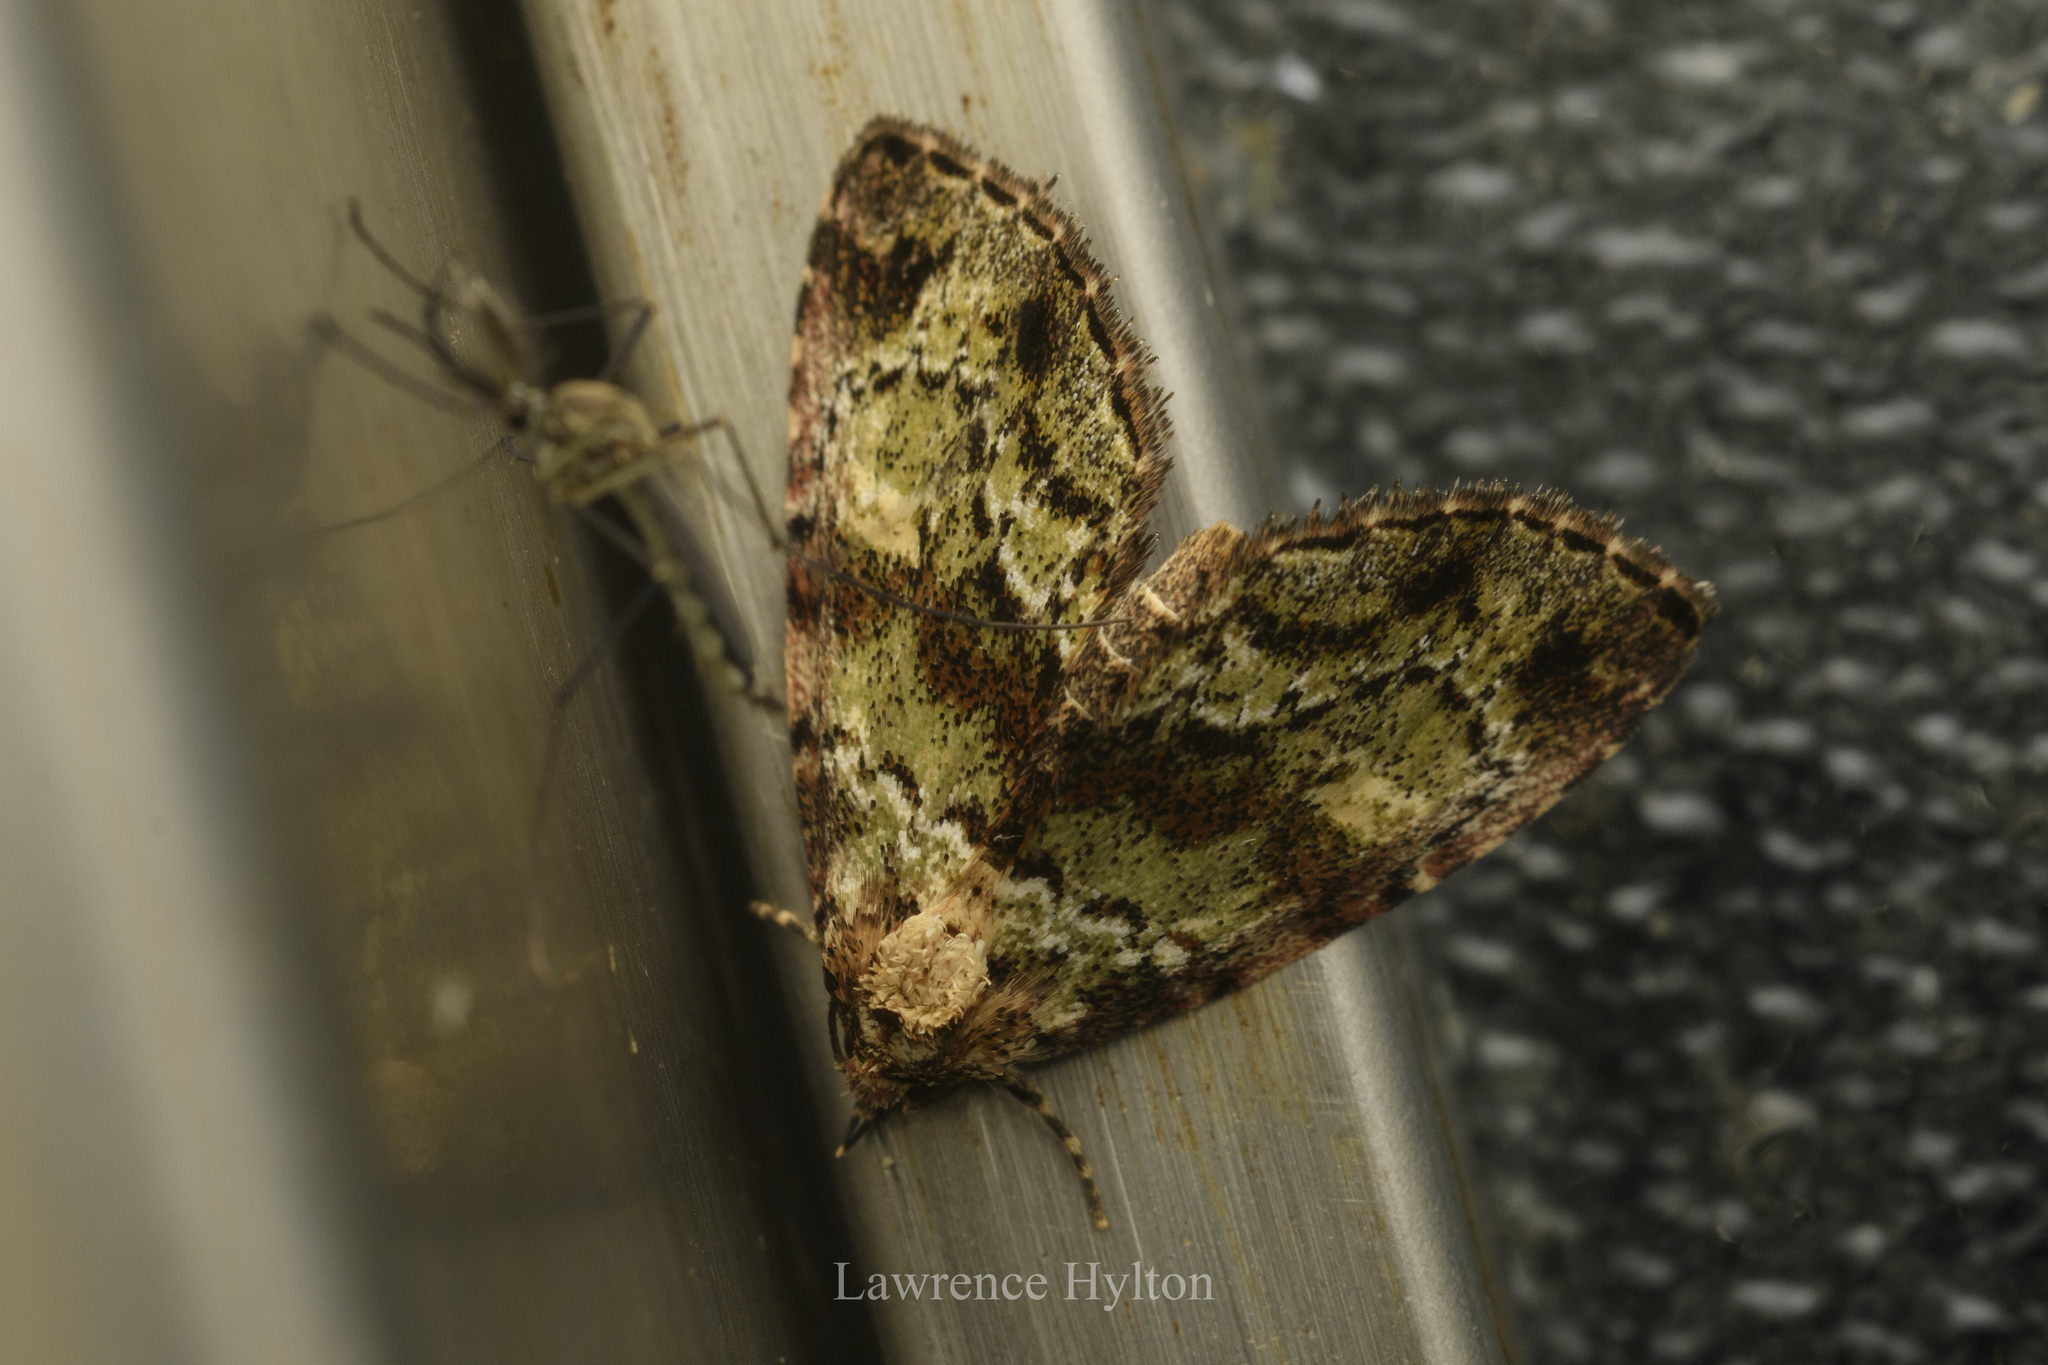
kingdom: Animalia
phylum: Arthropoda
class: Insecta
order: Lepidoptera
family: Noctuidae
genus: Lithacodia
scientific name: Lithacodia crotopha
